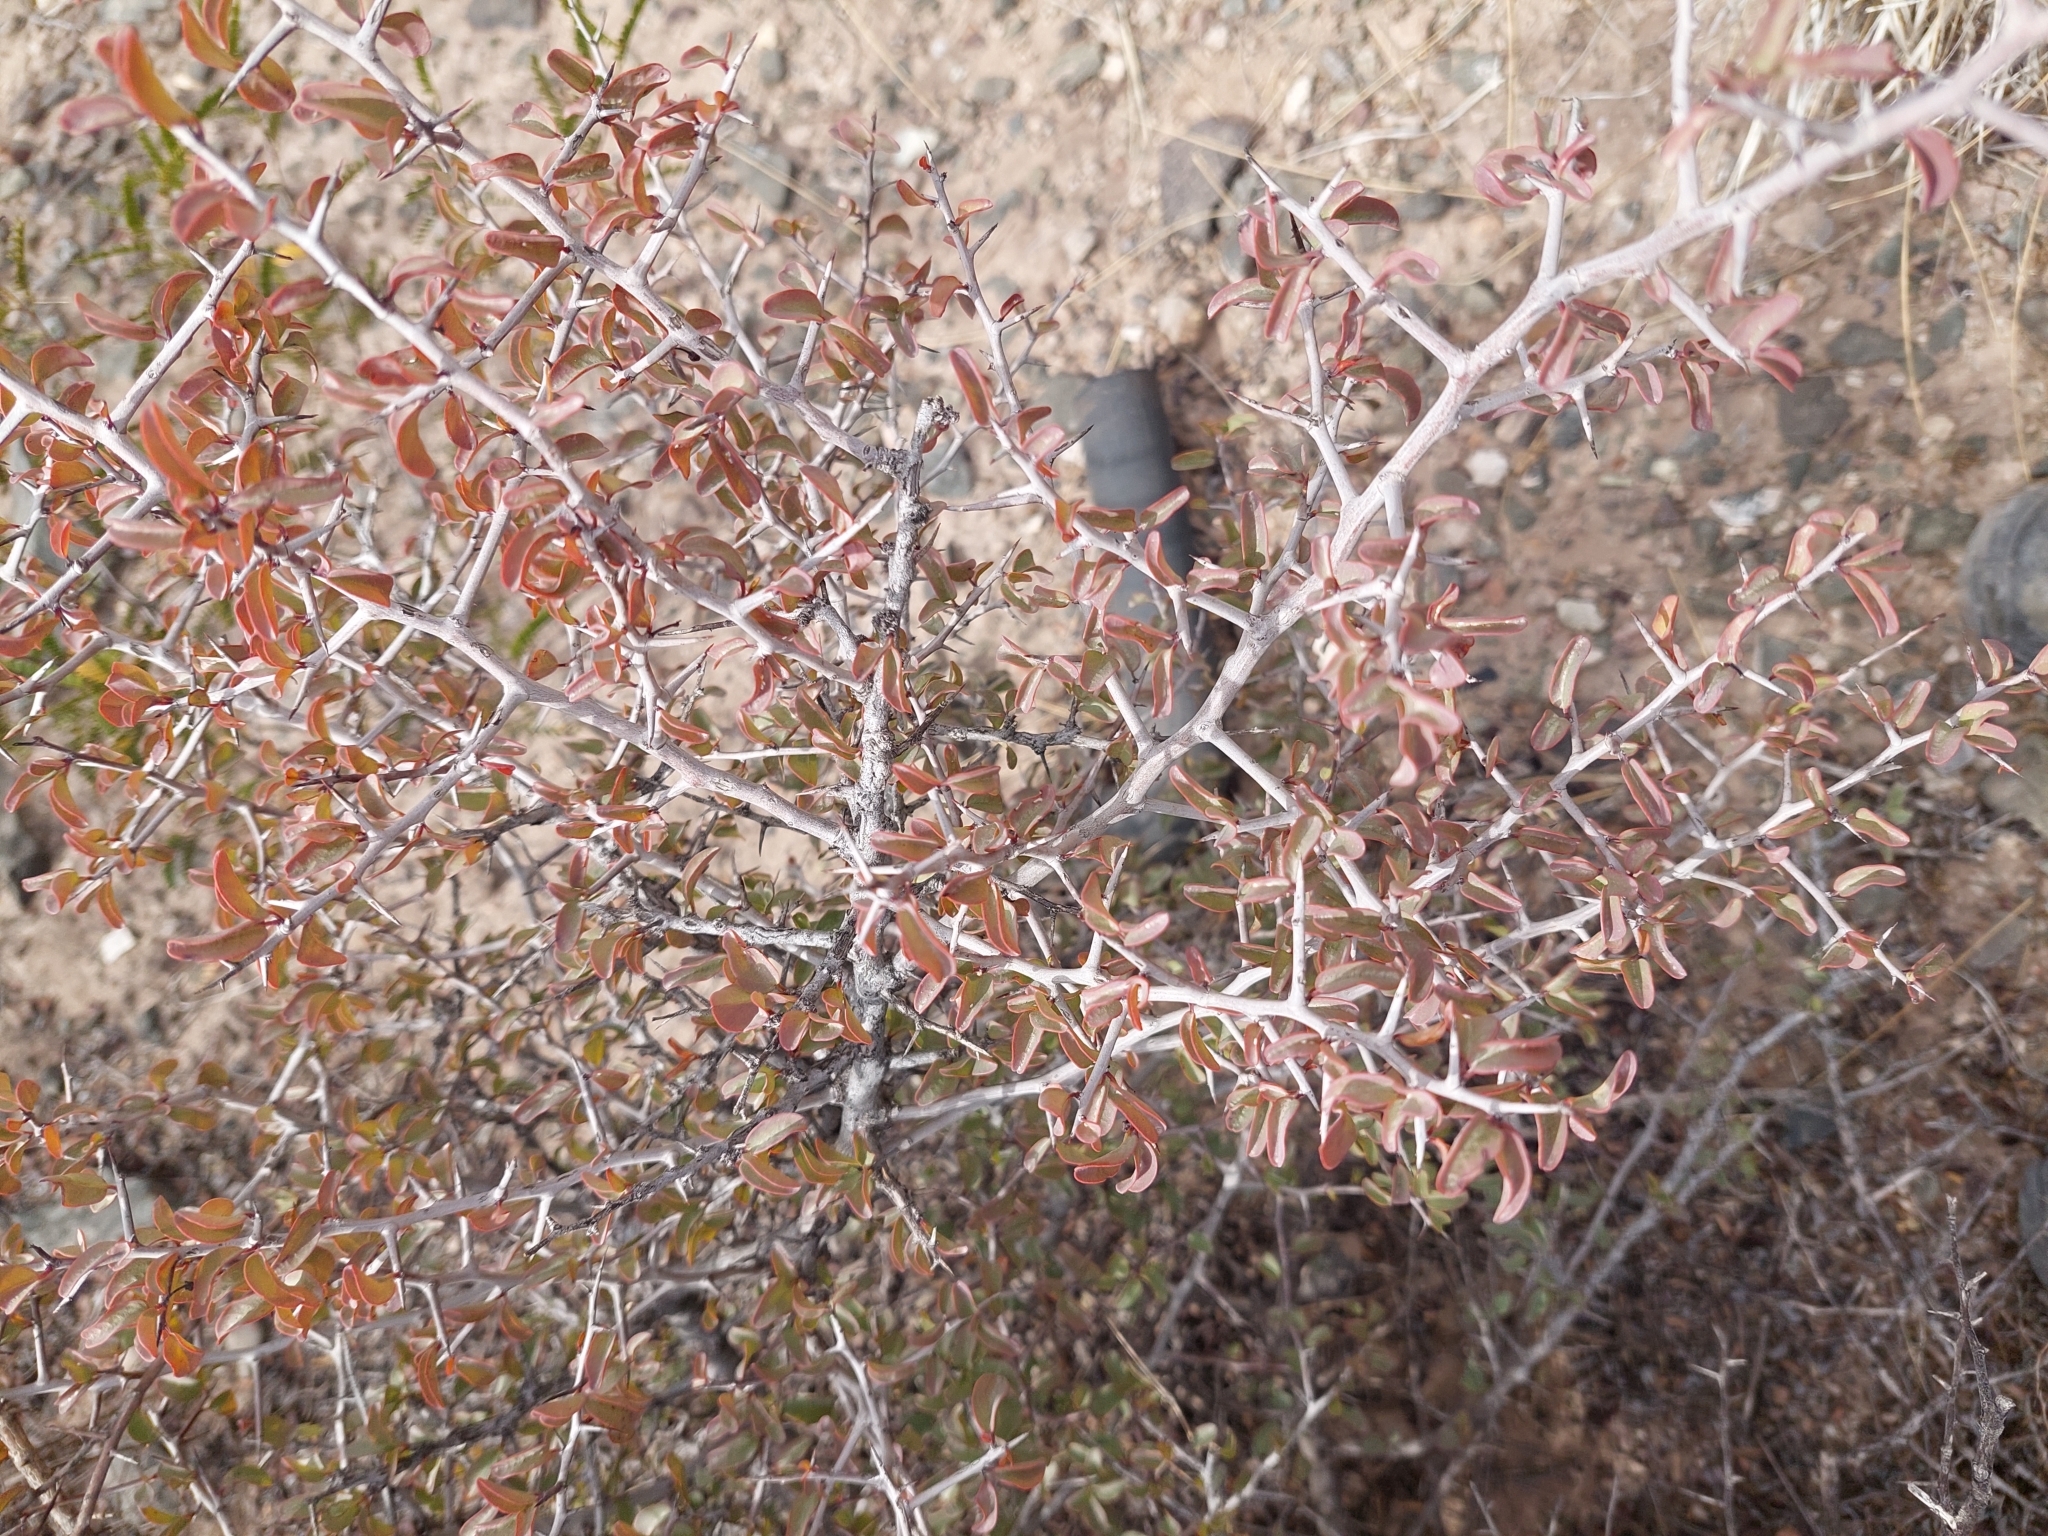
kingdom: Plantae
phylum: Tracheophyta
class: Magnoliopsida
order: Santalales
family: Ximeniaceae
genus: Ximenia
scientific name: Ximenia americana
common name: Tallowwood
